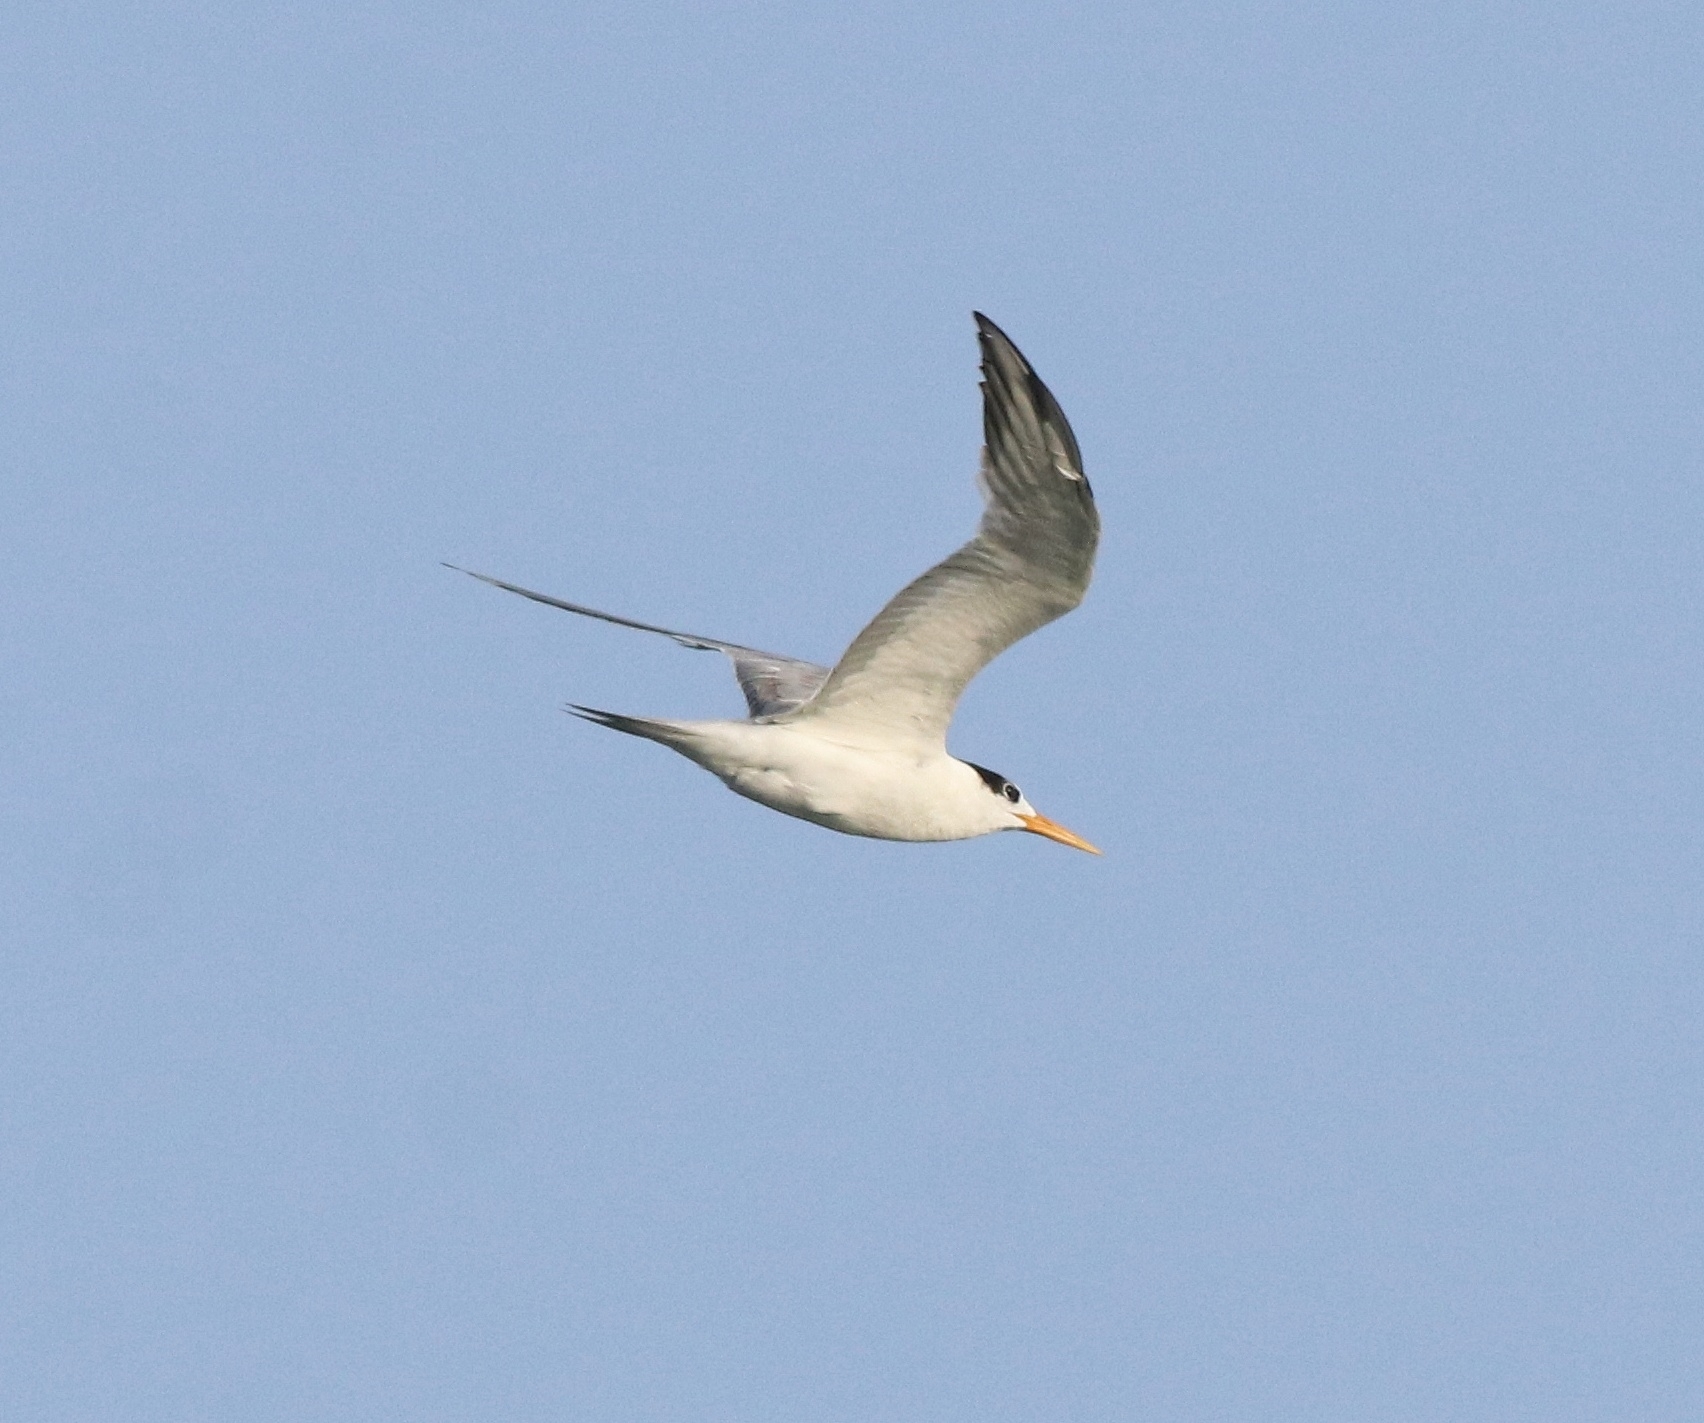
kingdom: Animalia
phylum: Chordata
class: Aves
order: Charadriiformes
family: Laridae
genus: Thalasseus
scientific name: Thalasseus bengalensis
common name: Lesser crested tern
